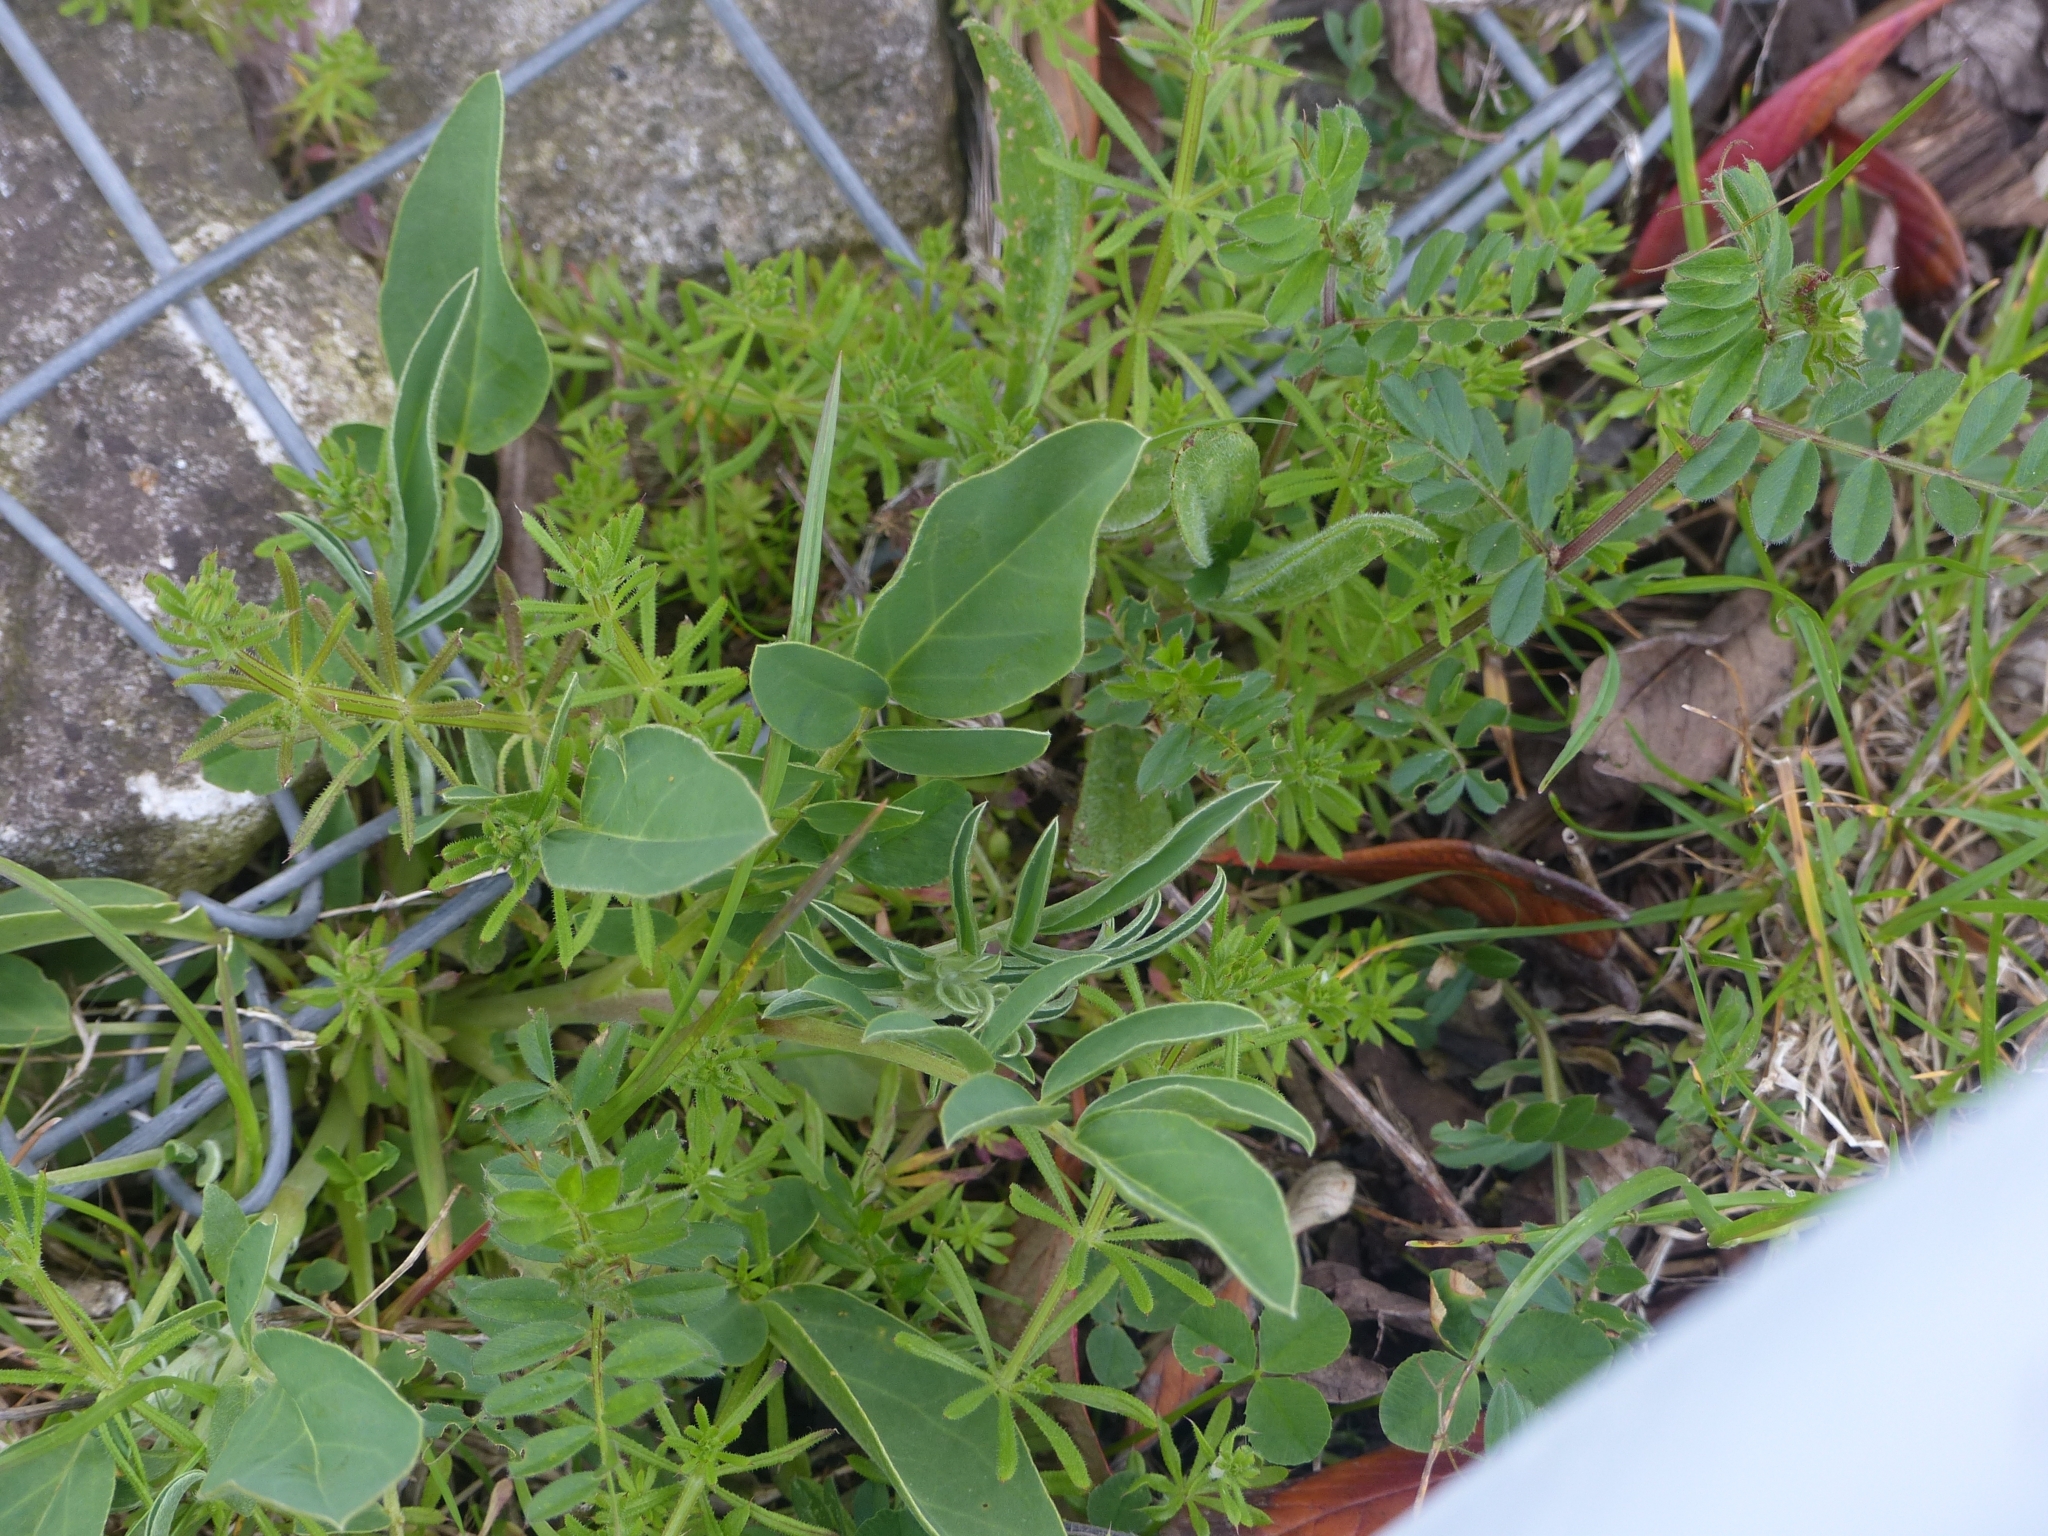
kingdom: Plantae
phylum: Tracheophyta
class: Magnoliopsida
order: Fabales
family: Fabaceae
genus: Anthyllis
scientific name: Anthyllis vulneraria
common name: Kidney vetch
